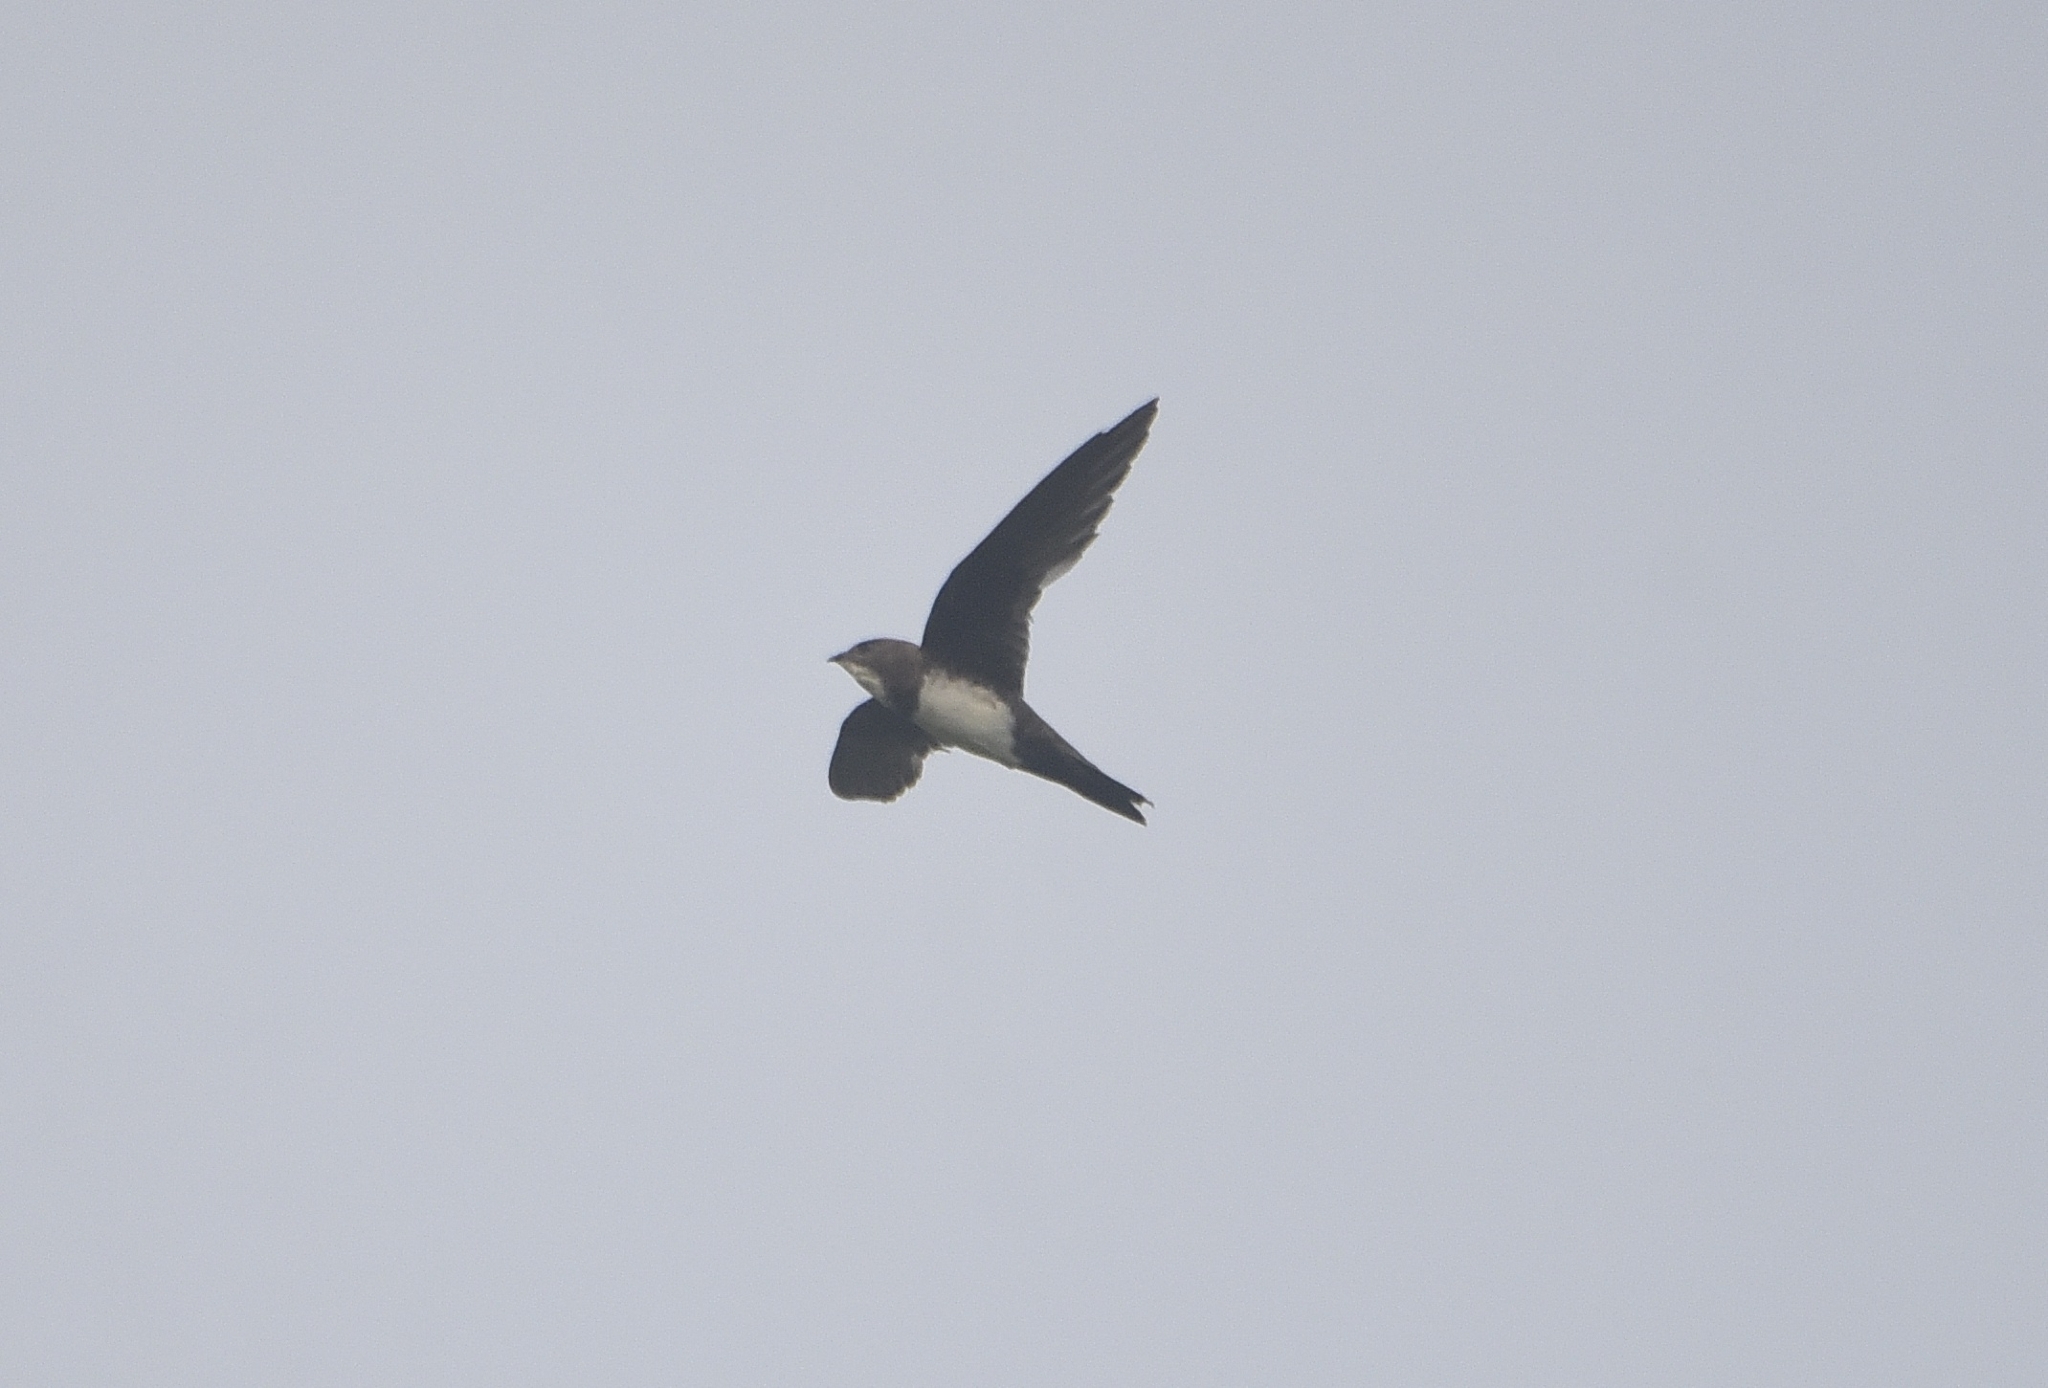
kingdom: Animalia
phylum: Chordata
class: Aves
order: Apodiformes
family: Apodidae
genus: Tachymarptis
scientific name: Tachymarptis melba
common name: Alpine swift
